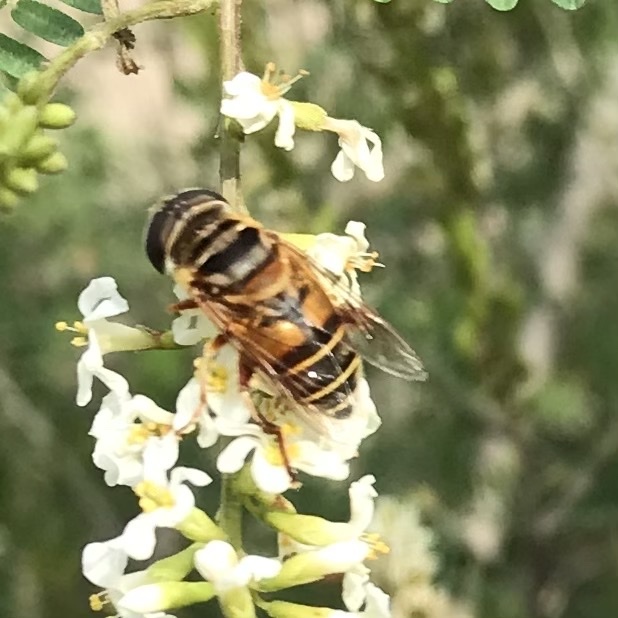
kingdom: Animalia
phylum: Arthropoda
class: Insecta
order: Diptera
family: Syrphidae
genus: Palpada
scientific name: Palpada vinetorum
